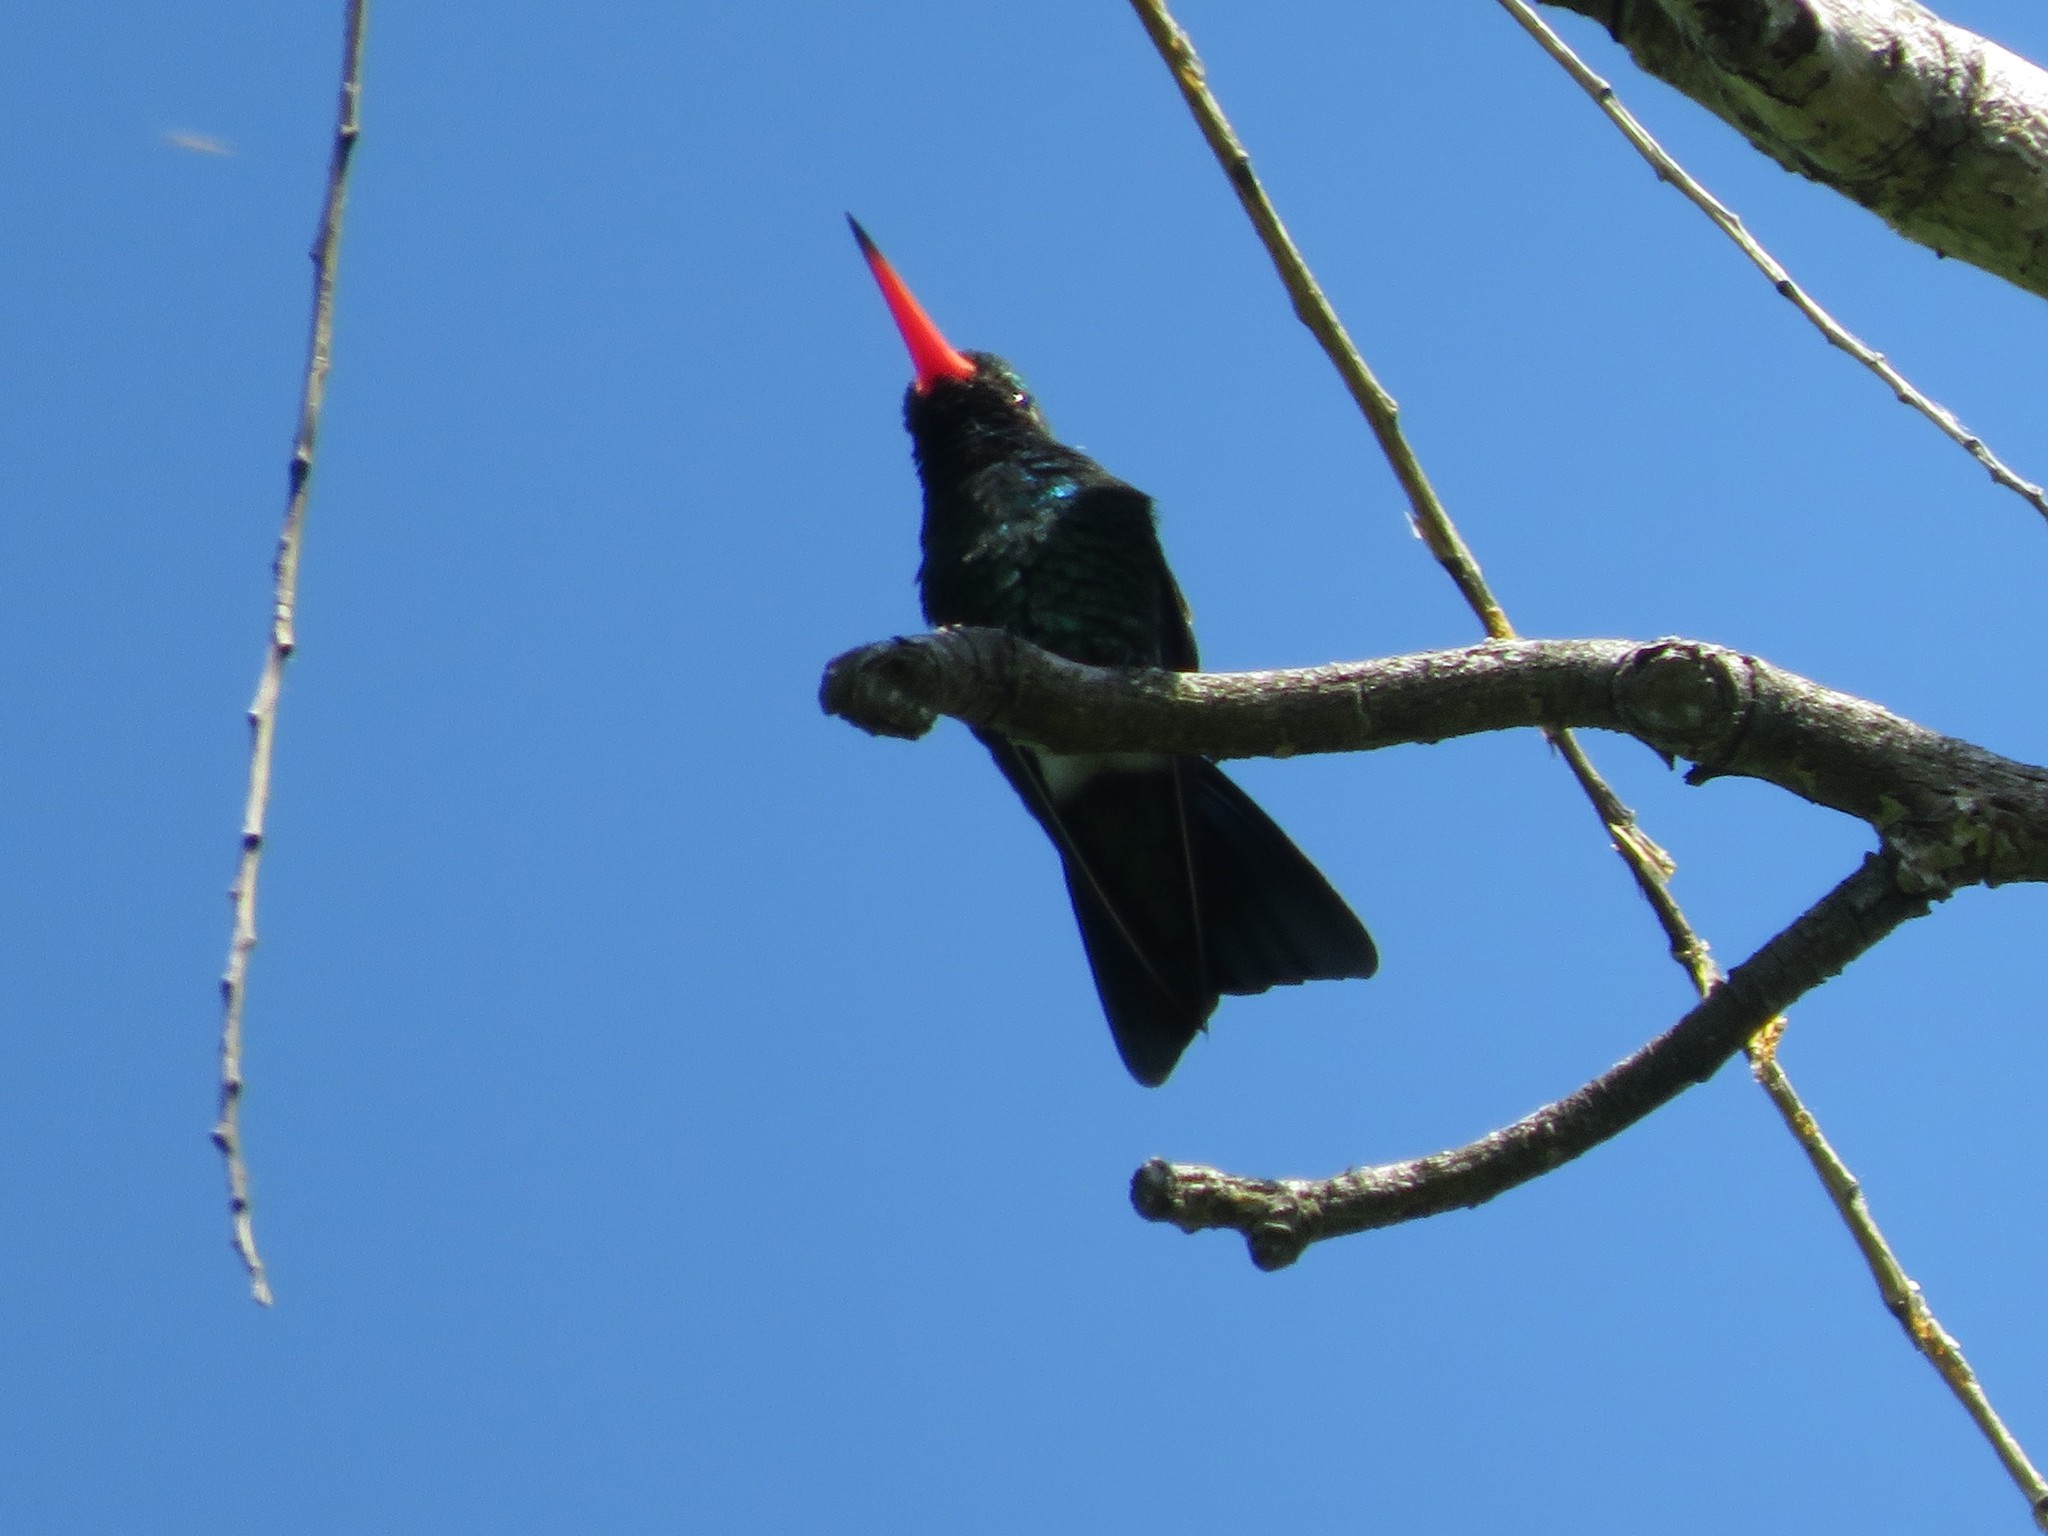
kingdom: Animalia
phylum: Chordata
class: Aves
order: Apodiformes
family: Trochilidae
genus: Chlorostilbon
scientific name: Chlorostilbon lucidus
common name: Glittering-bellied emerald
